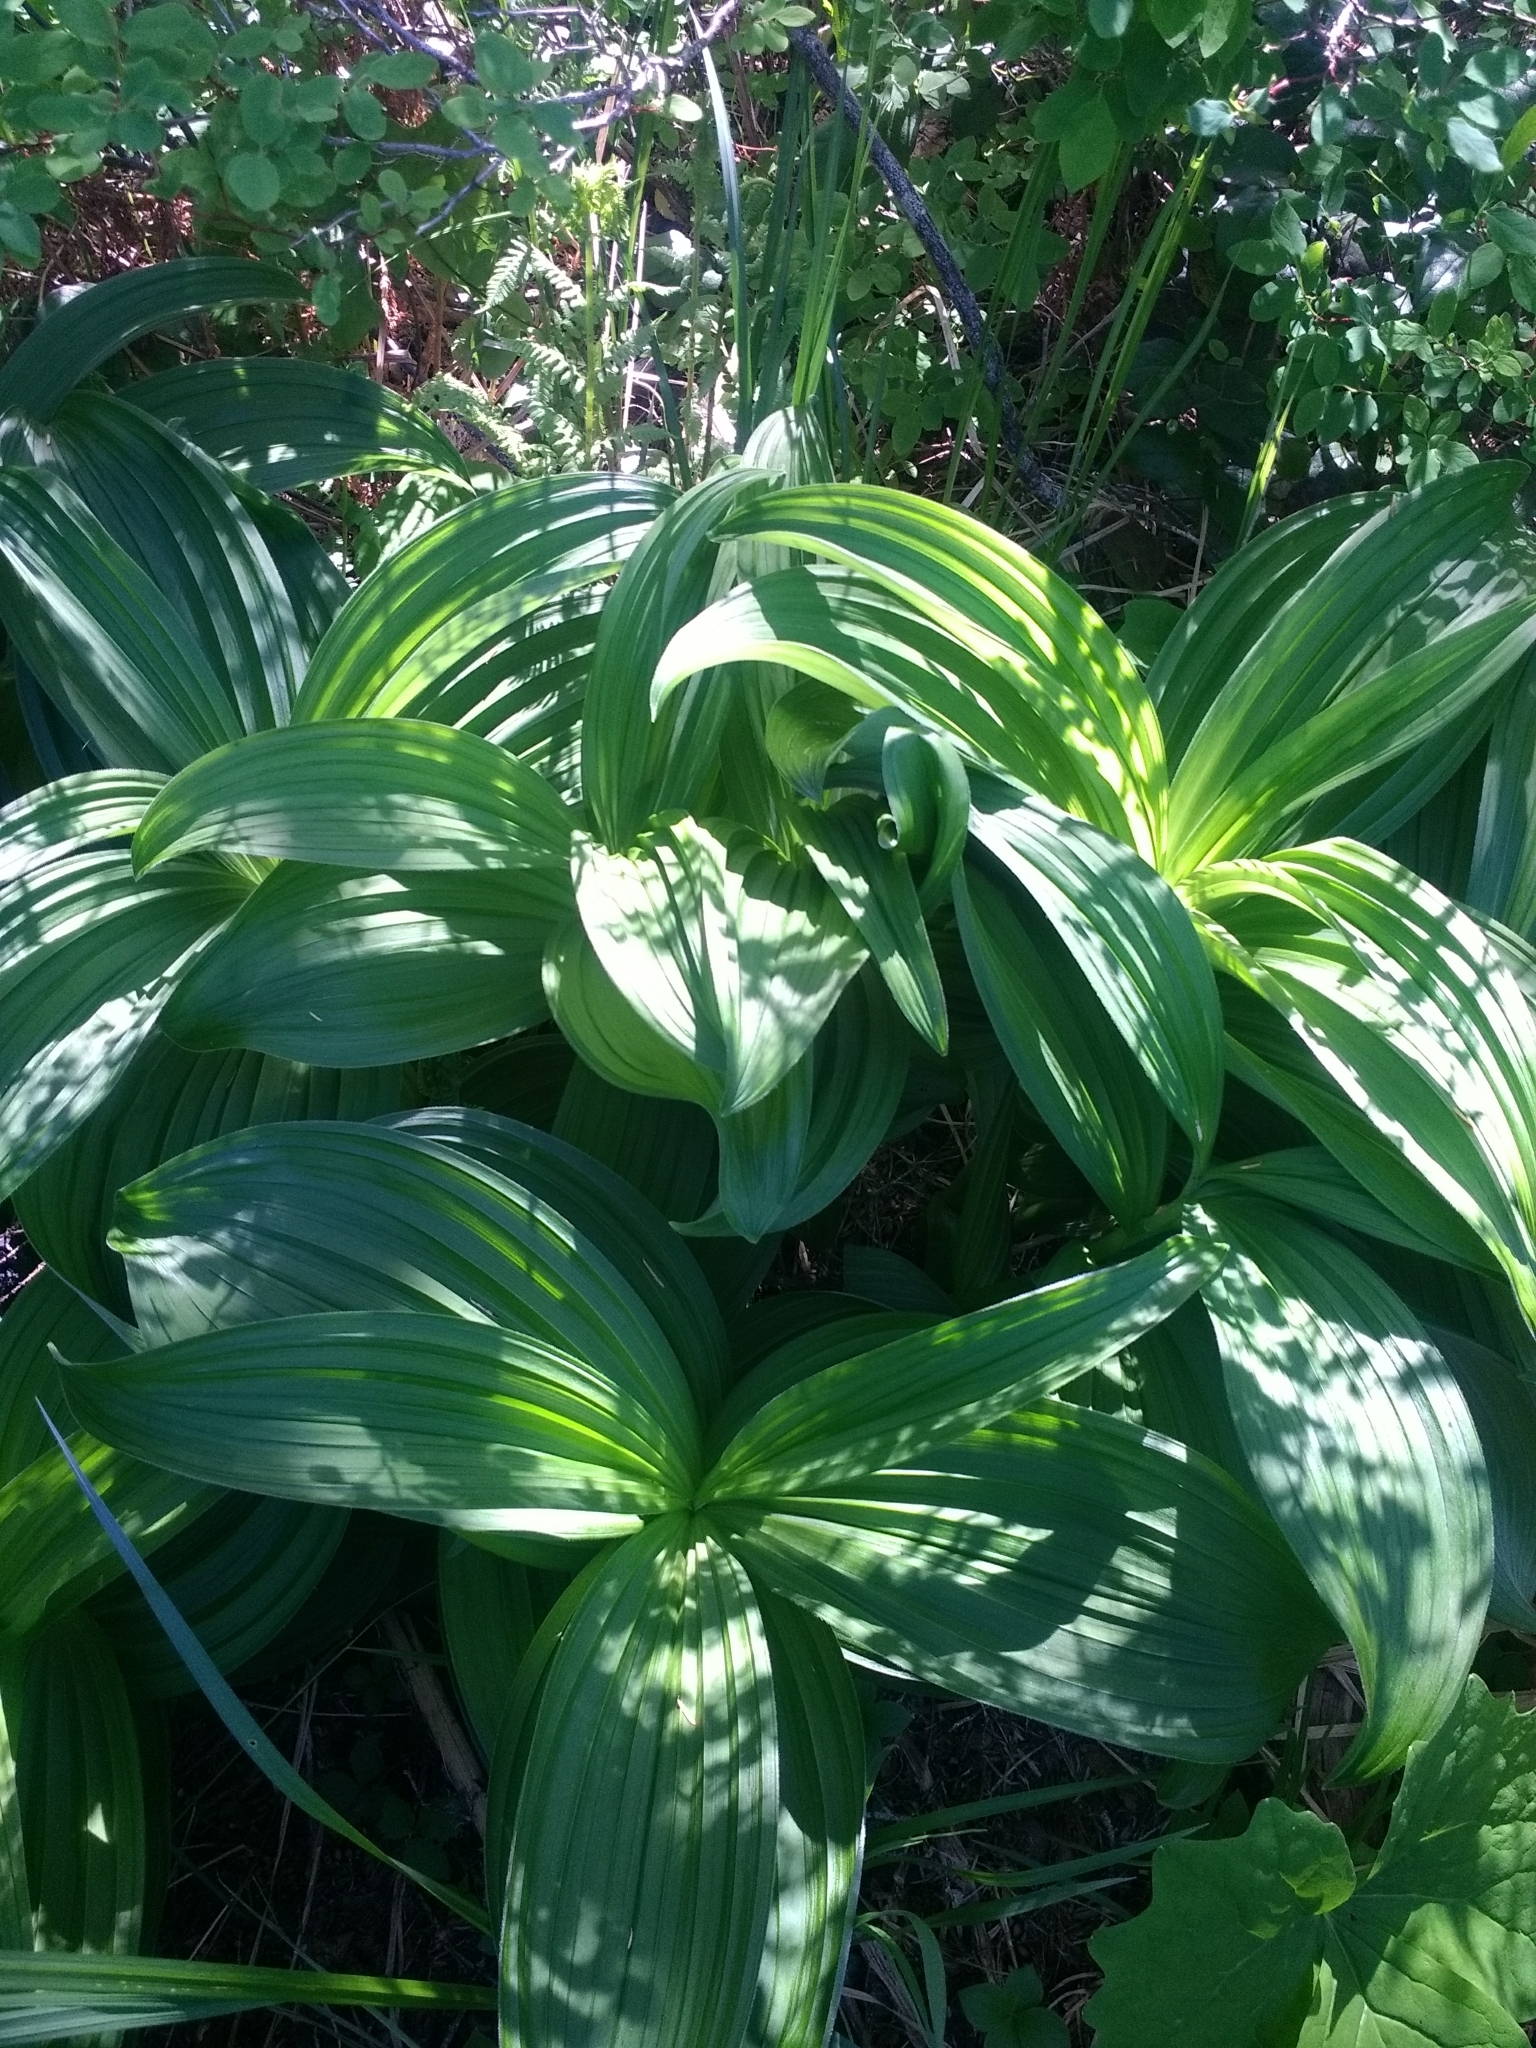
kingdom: Plantae
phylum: Tracheophyta
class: Liliopsida
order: Liliales
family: Melanthiaceae
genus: Veratrum
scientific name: Veratrum viride
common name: American false hellebore
